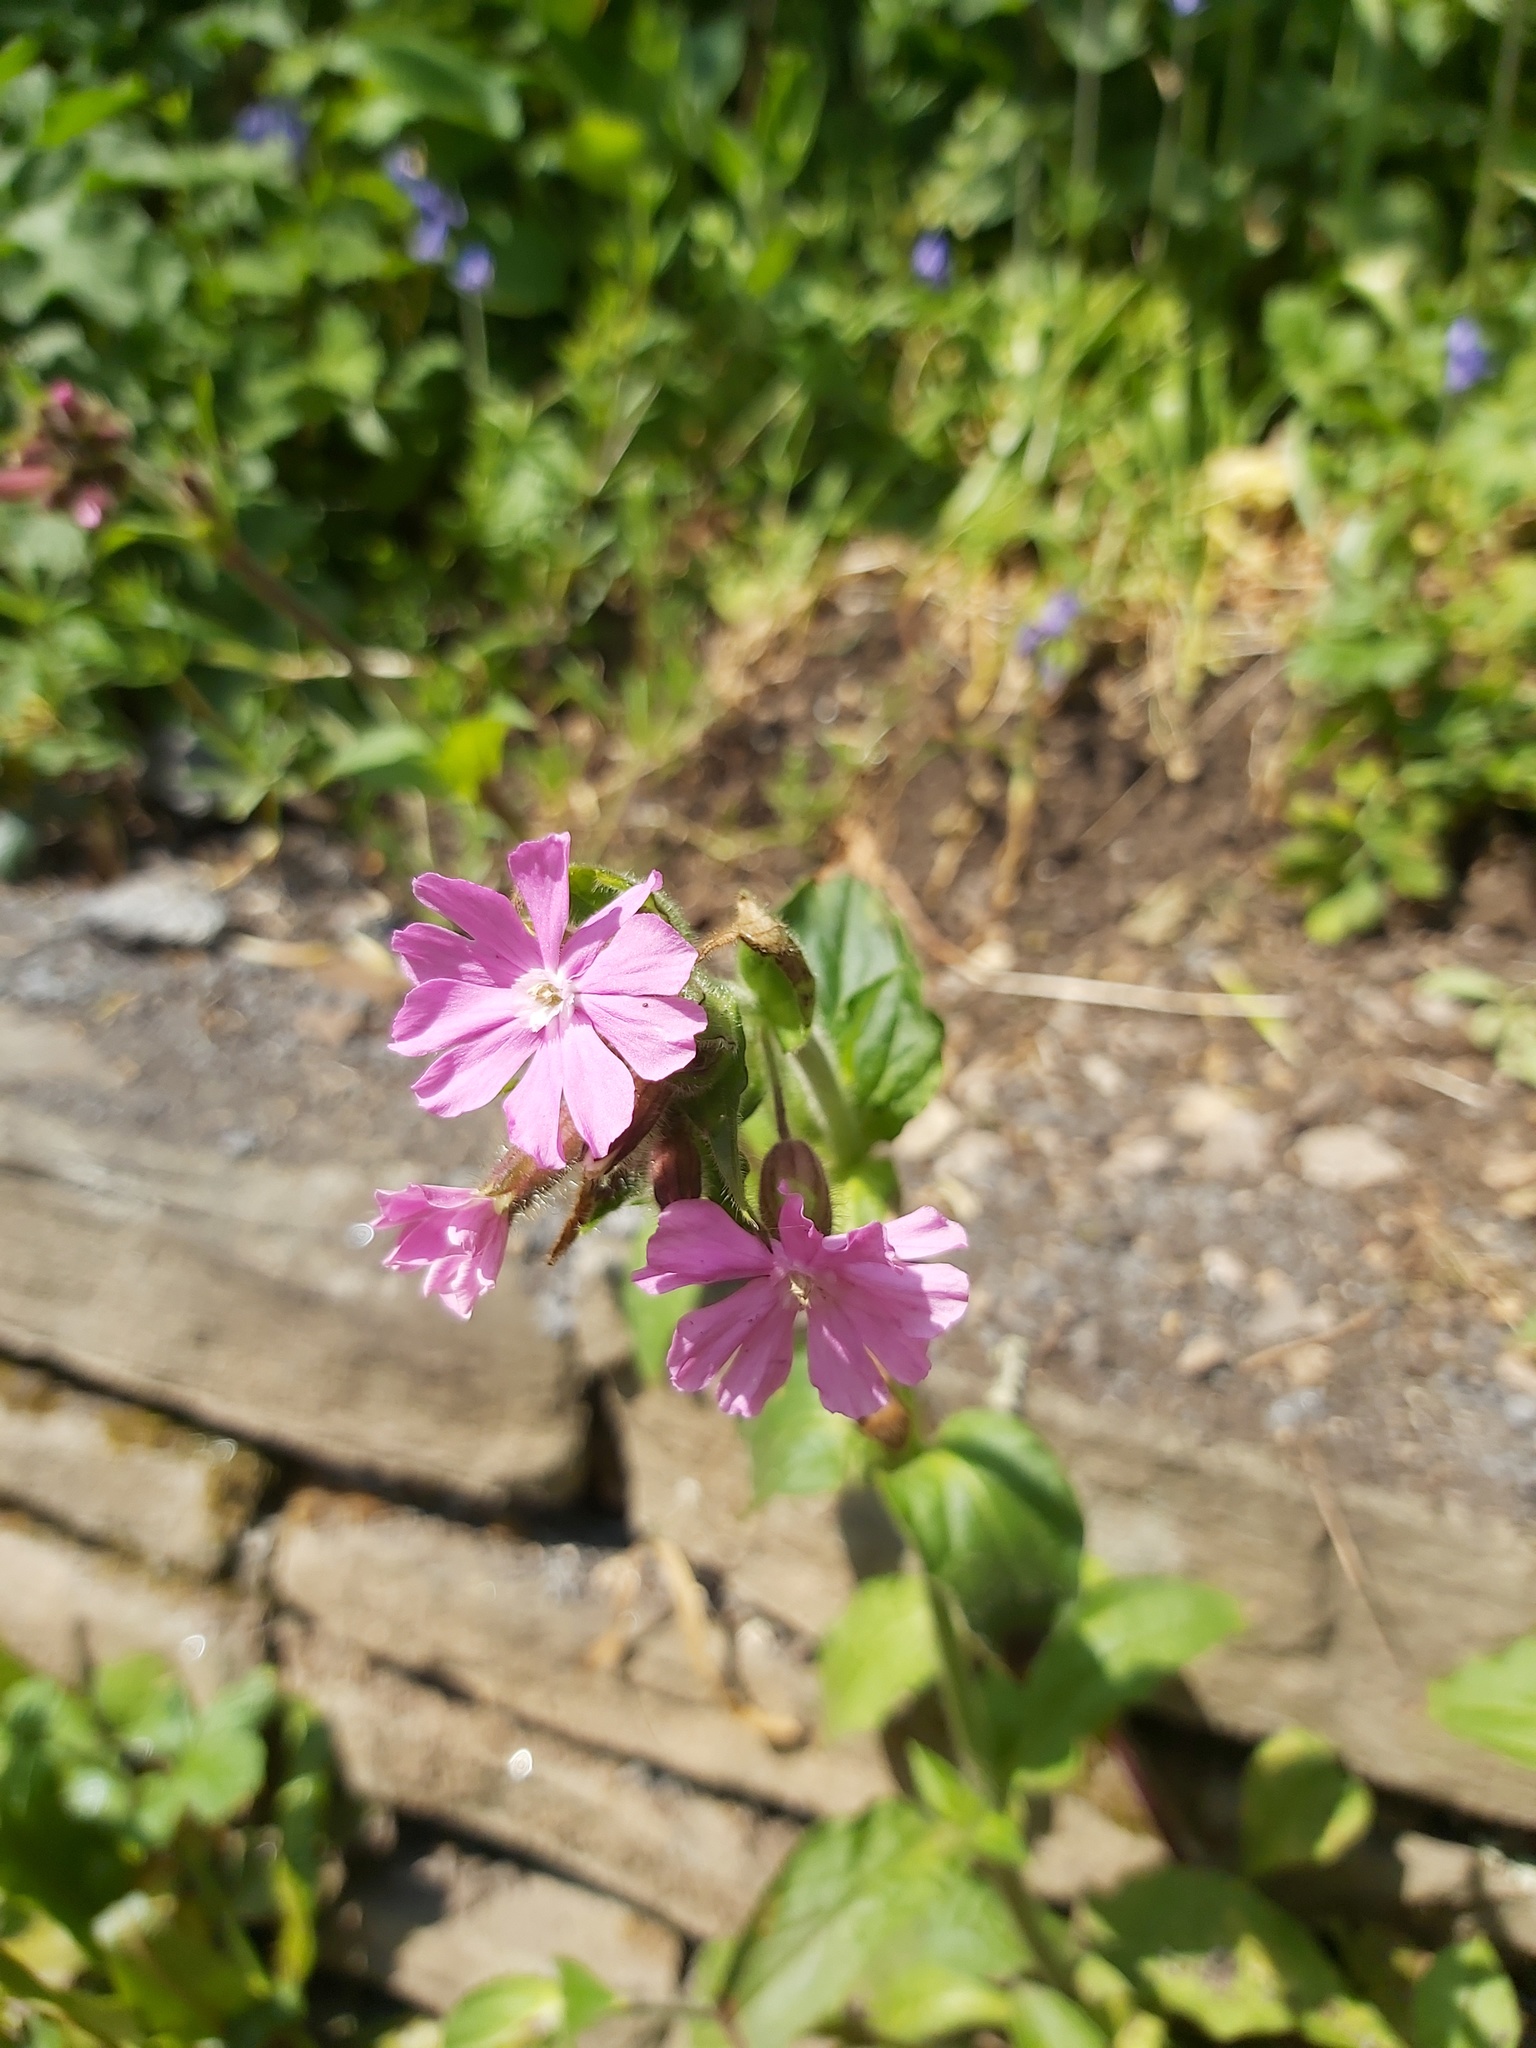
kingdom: Plantae
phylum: Tracheophyta
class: Magnoliopsida
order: Caryophyllales
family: Caryophyllaceae
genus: Silene
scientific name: Silene dioica
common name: Red campion
